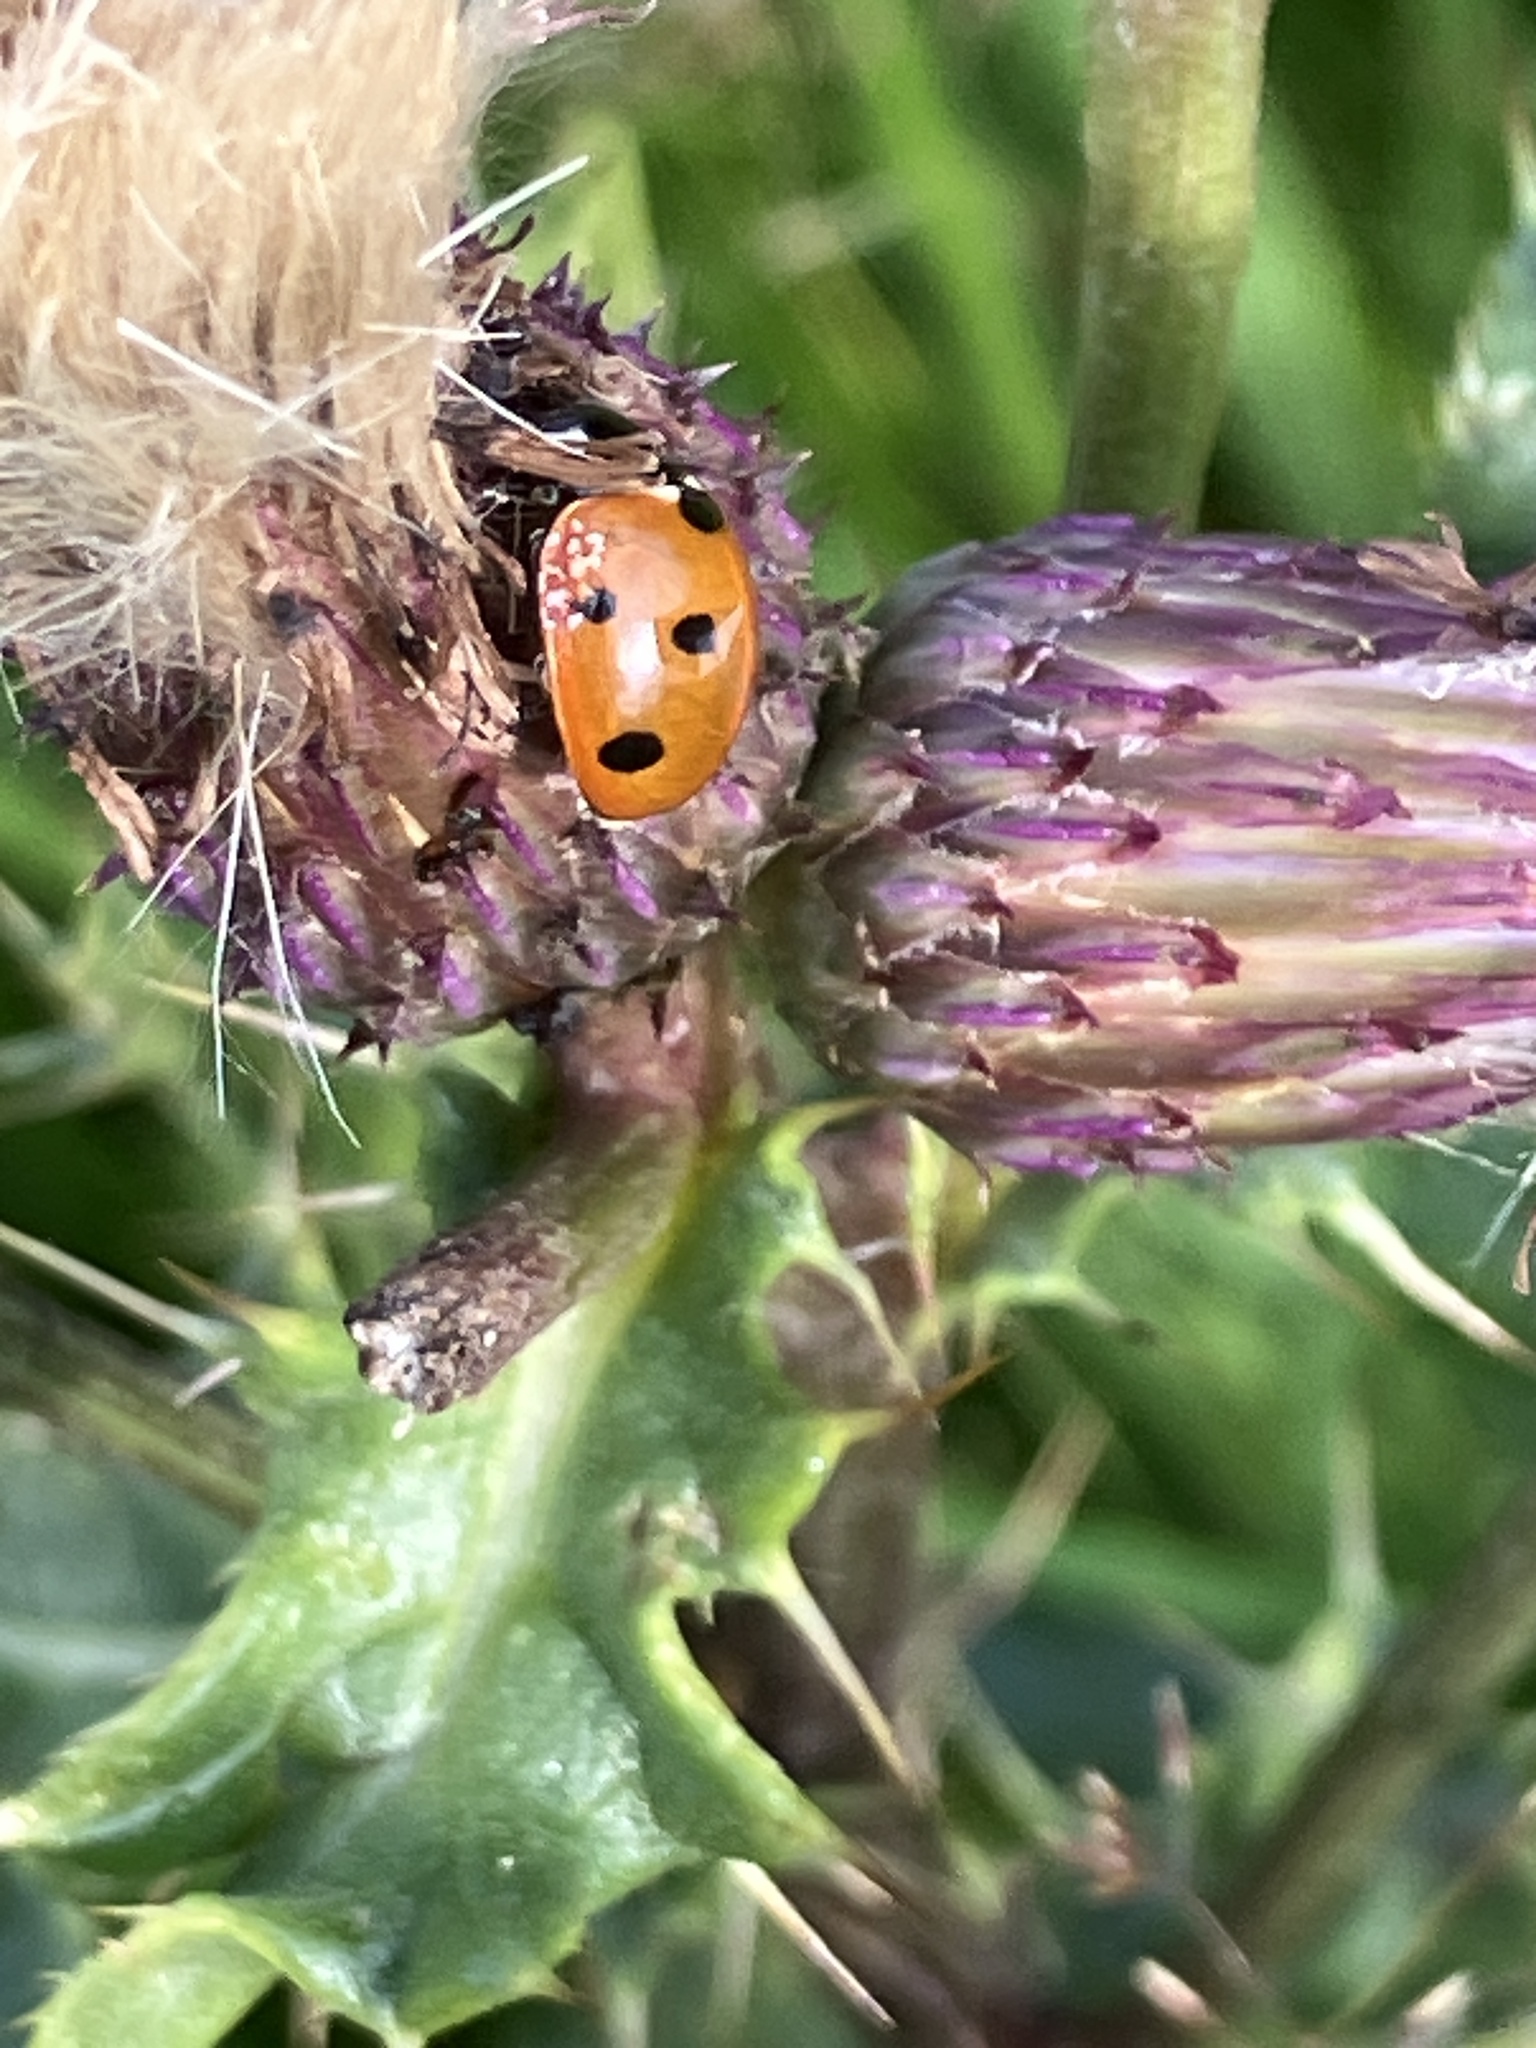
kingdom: Animalia
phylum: Arthropoda
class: Insecta
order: Coleoptera
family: Coccinellidae
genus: Coccinella
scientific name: Coccinella septempunctata
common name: Sevenspotted lady beetle
